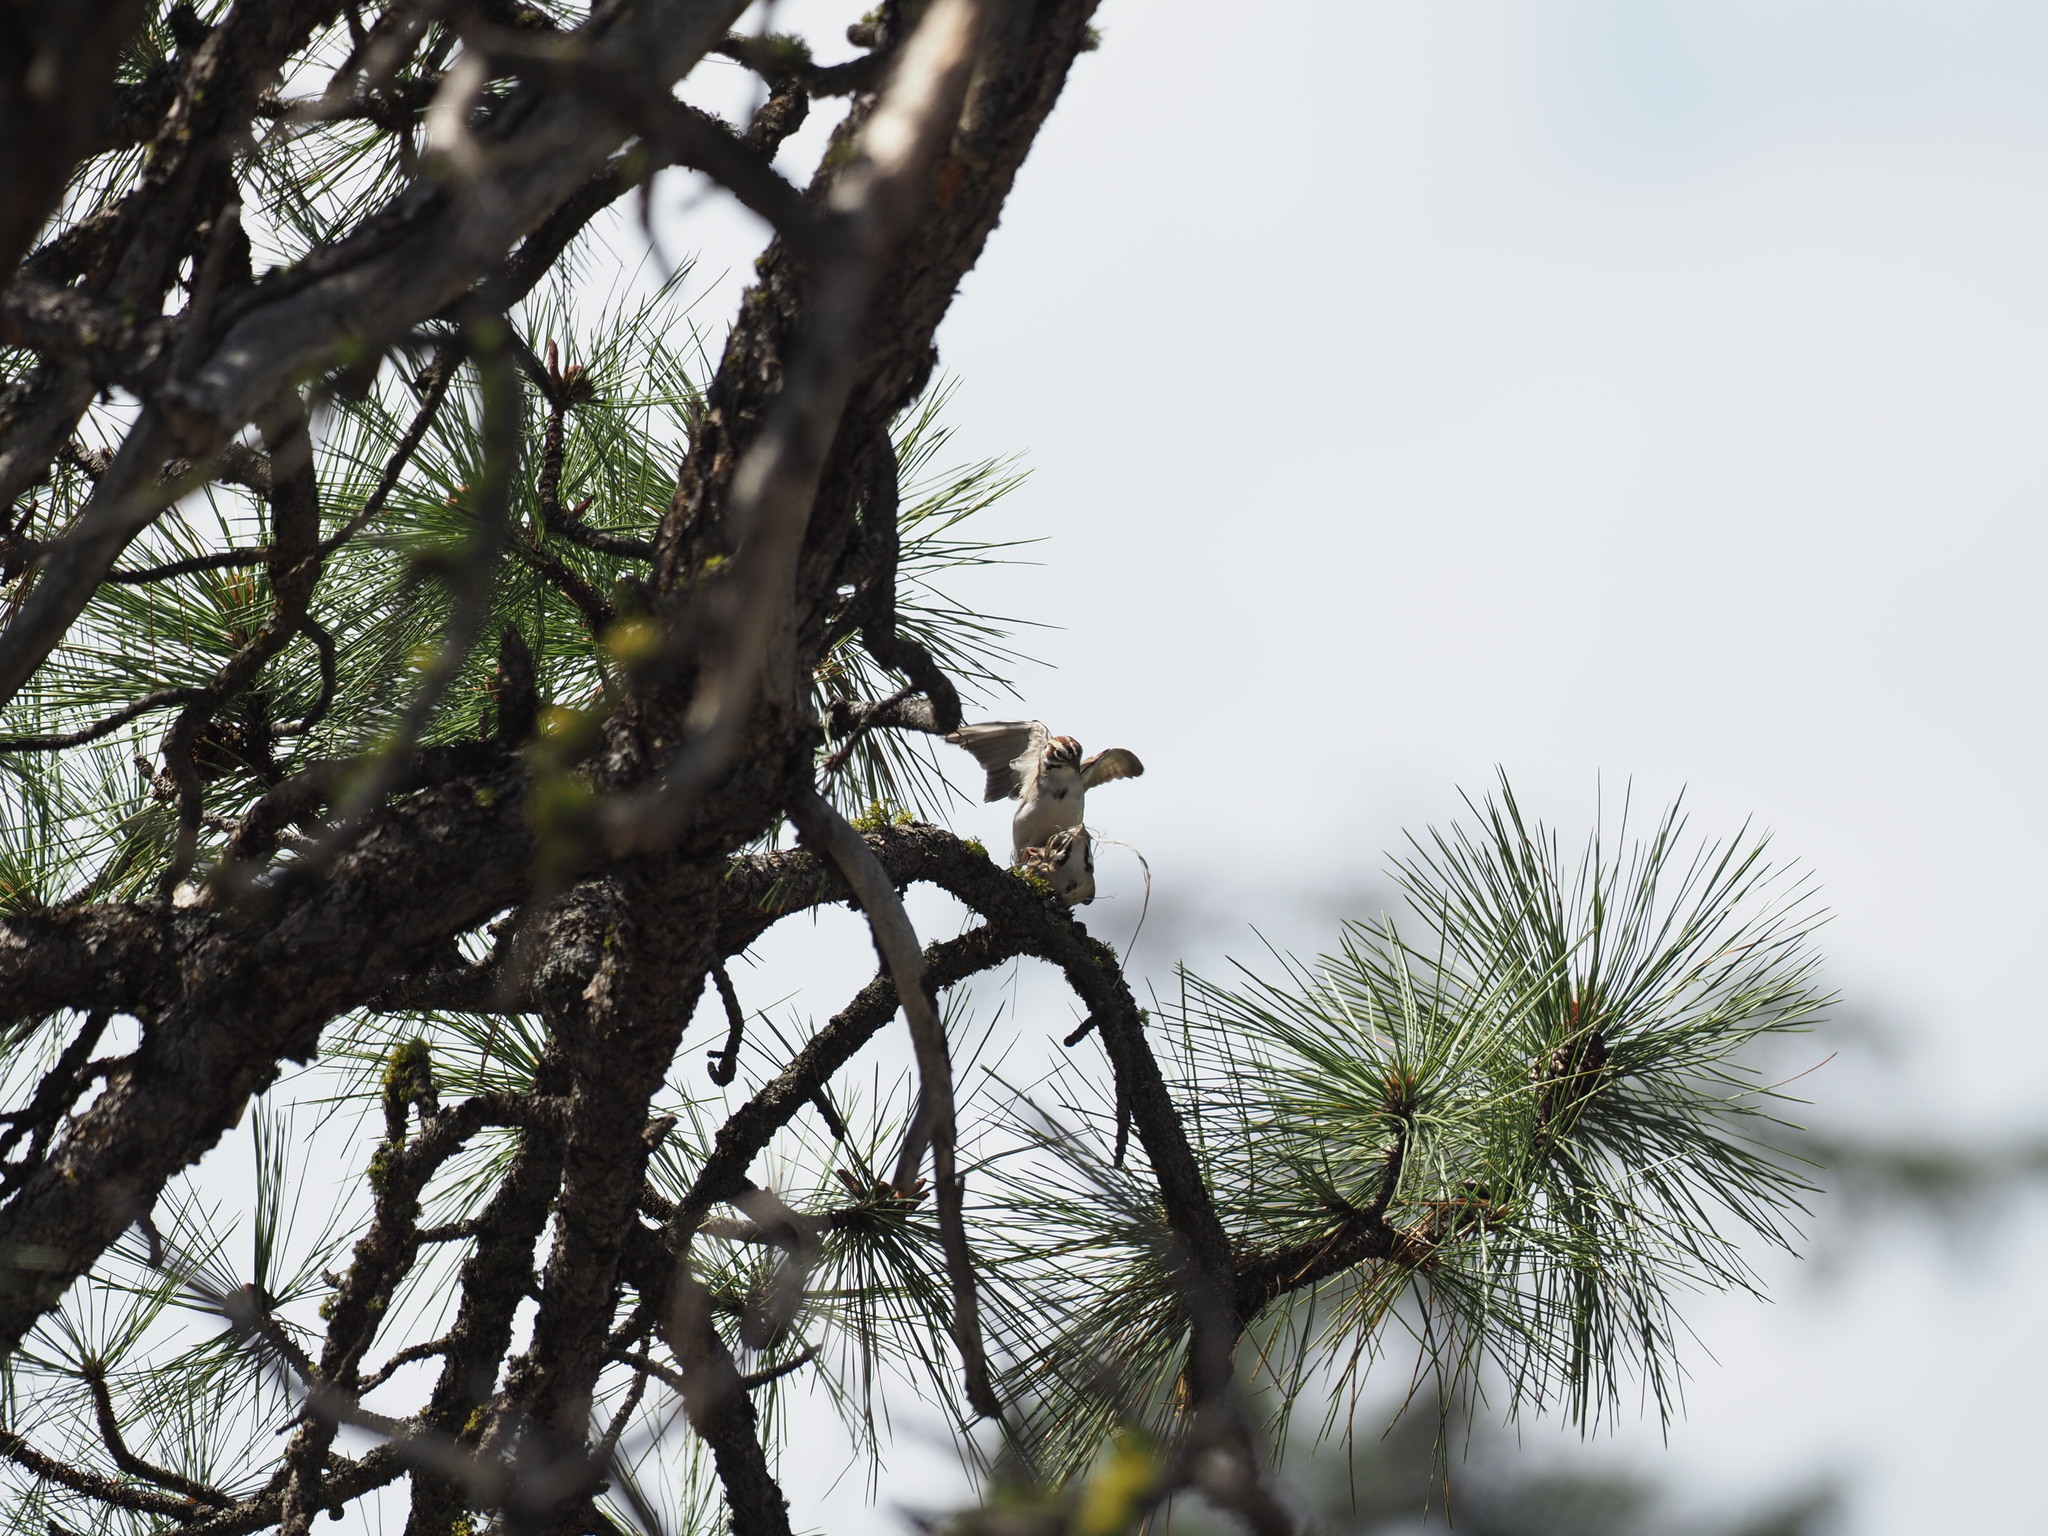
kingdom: Animalia
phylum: Chordata
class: Aves
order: Passeriformes
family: Passerellidae
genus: Chondestes
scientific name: Chondestes grammacus
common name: Lark sparrow
